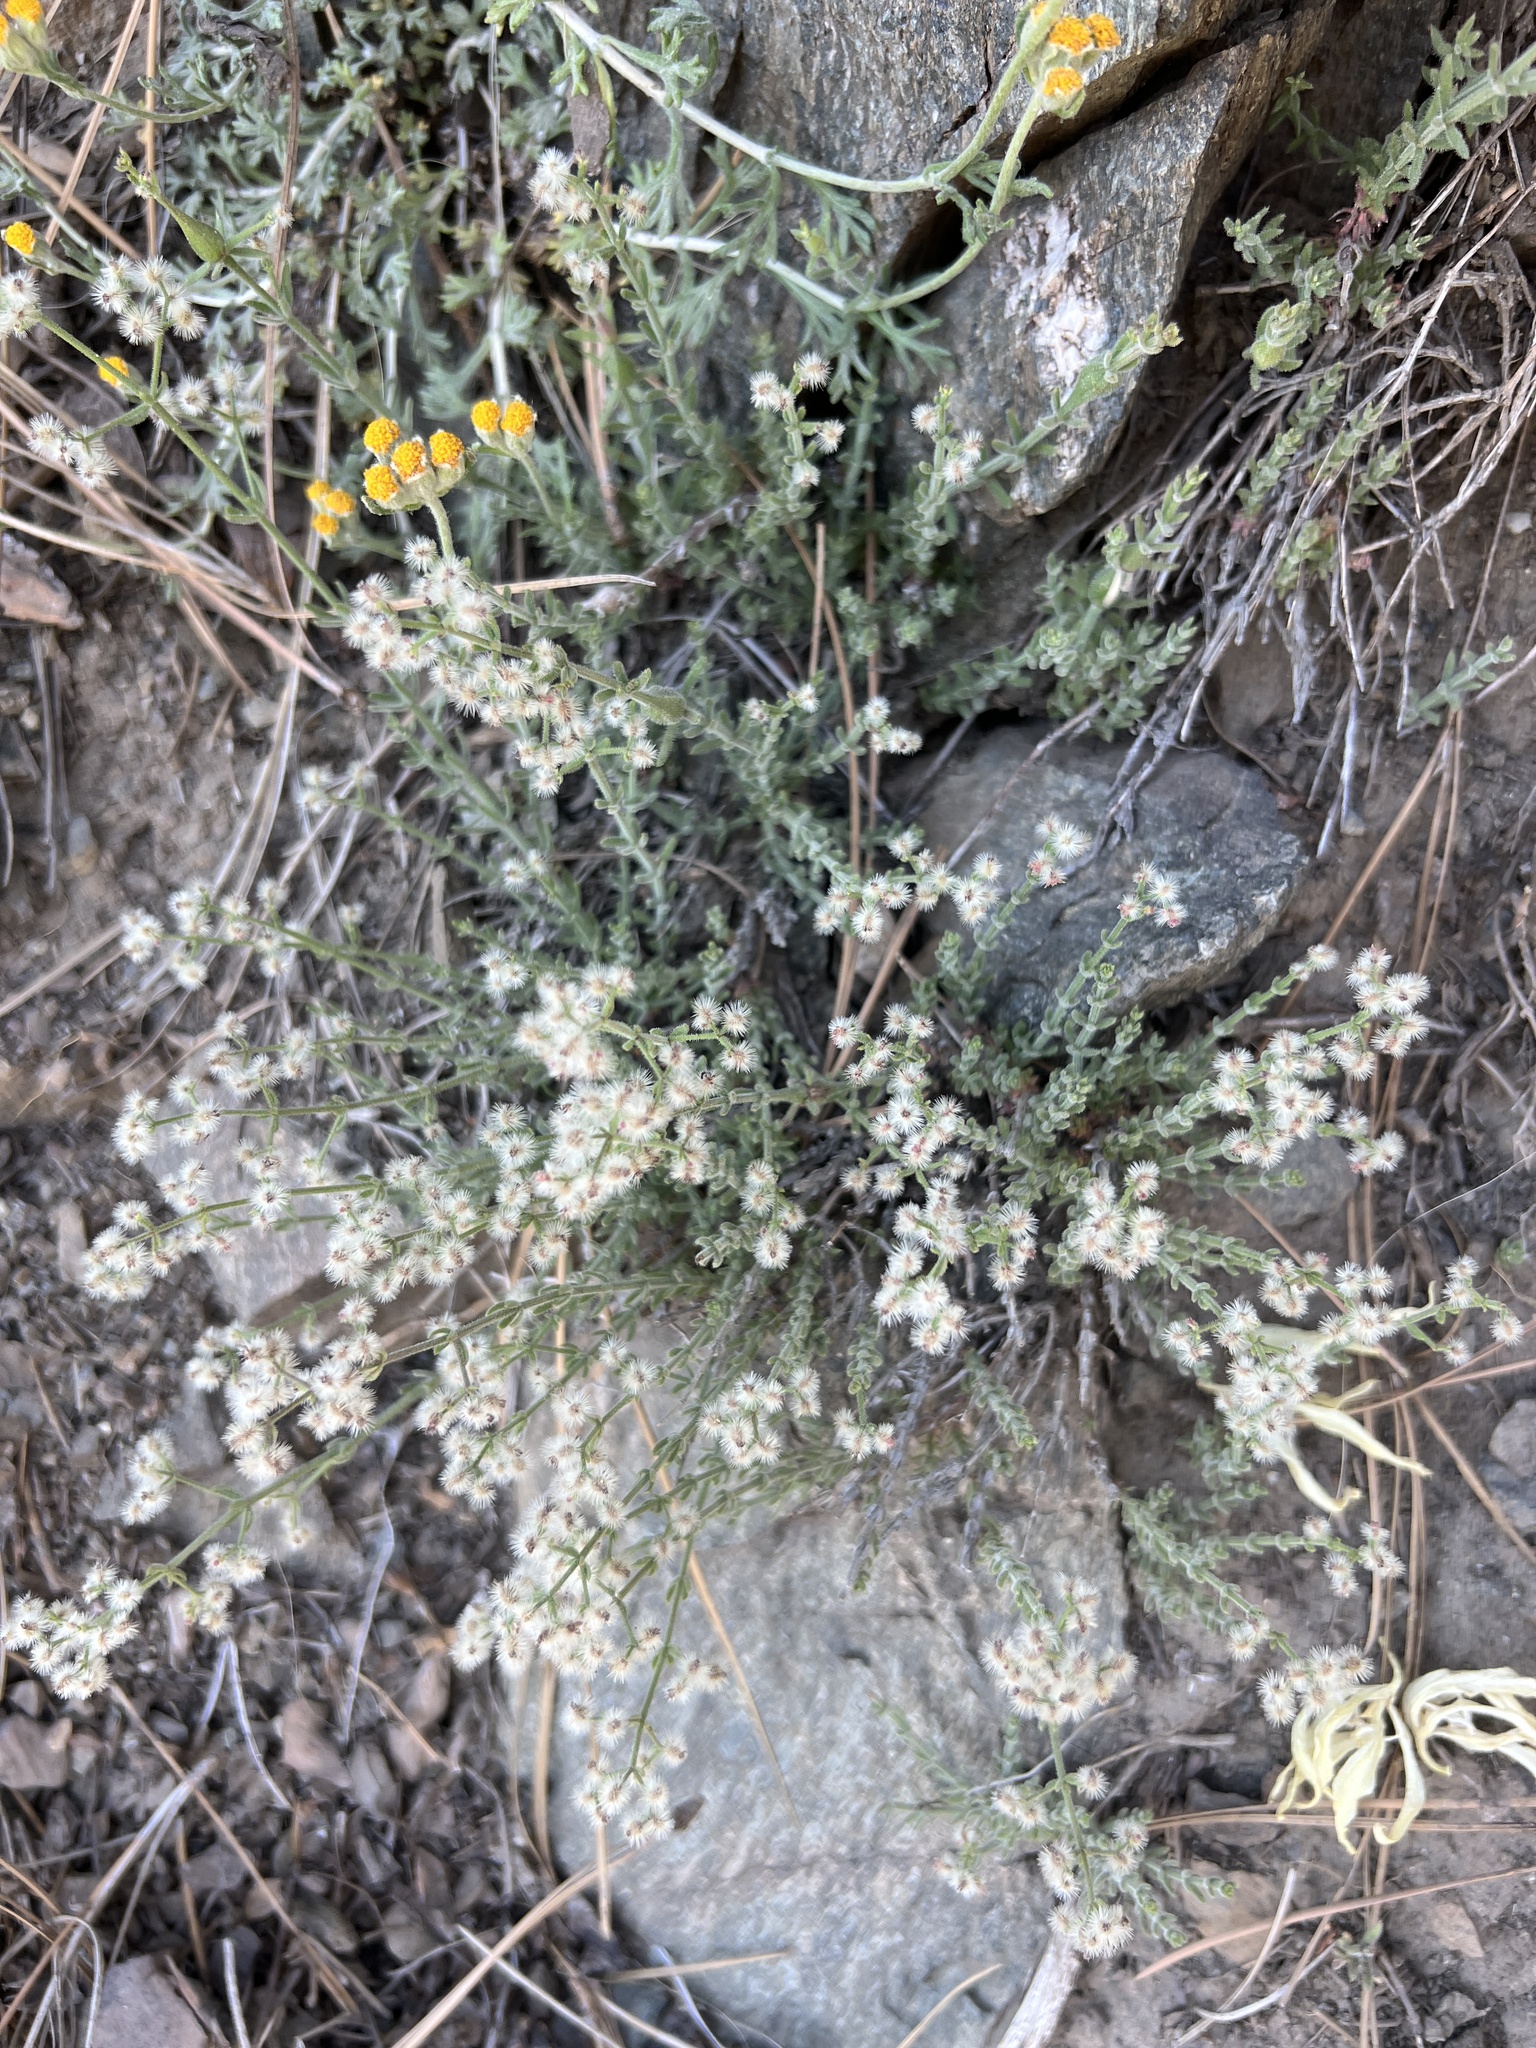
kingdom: Plantae
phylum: Tracheophyta
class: Magnoliopsida
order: Gentianales
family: Rubiaceae
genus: Galium
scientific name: Galium angustifolium
